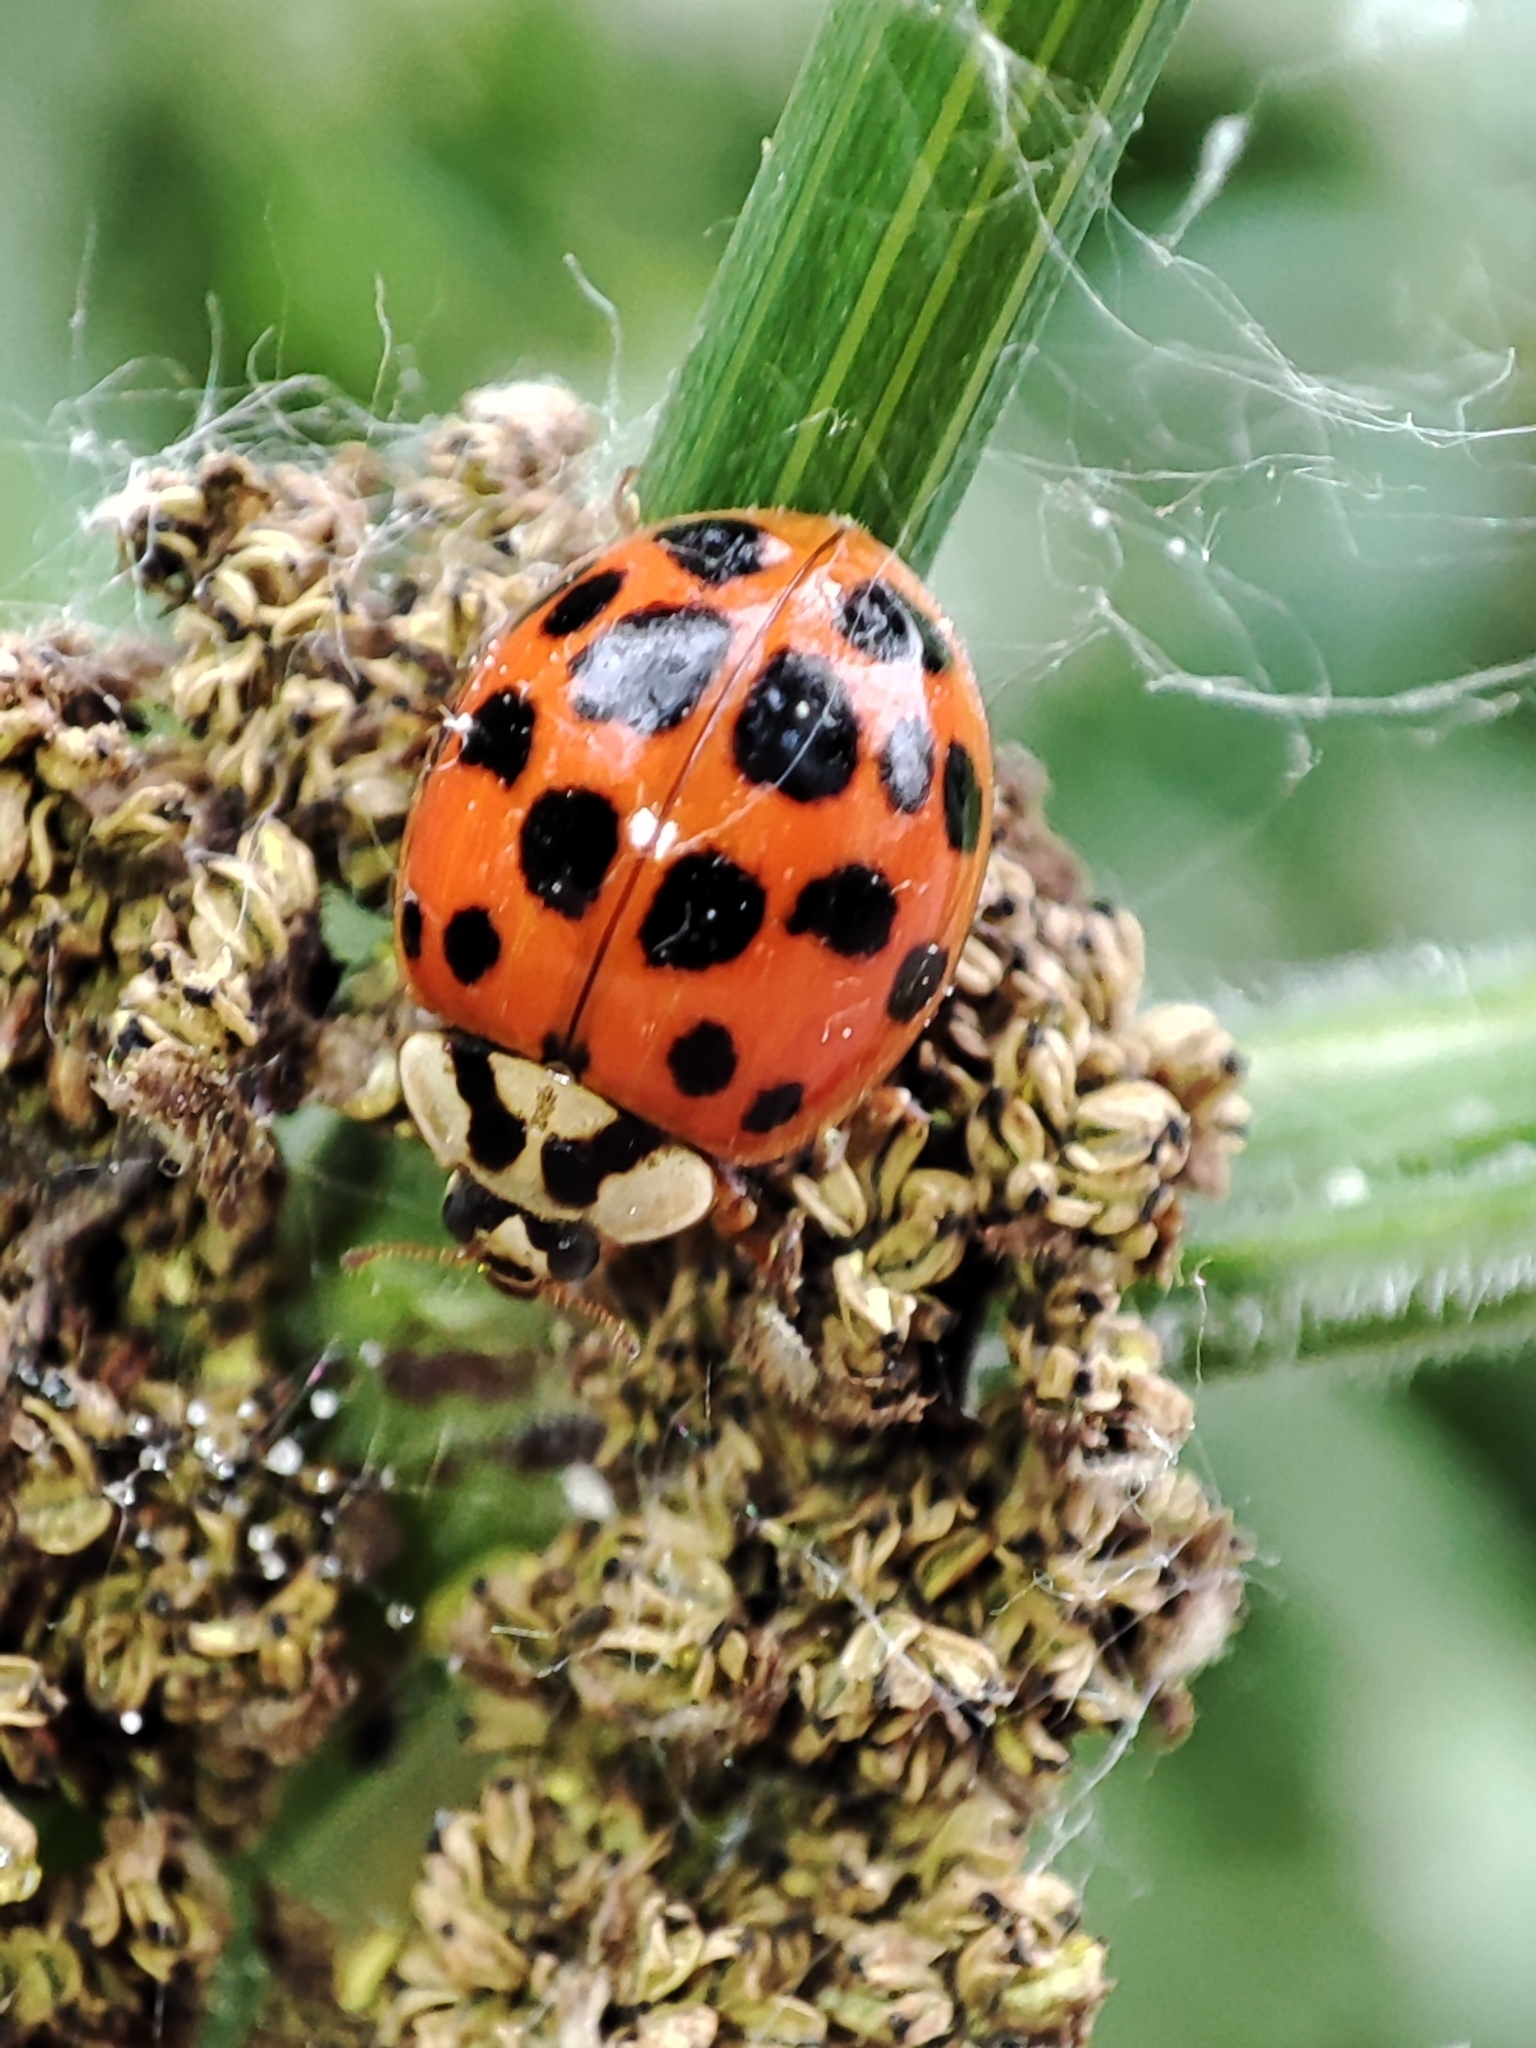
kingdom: Animalia
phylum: Arthropoda
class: Insecta
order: Coleoptera
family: Coccinellidae
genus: Harmonia
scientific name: Harmonia axyridis
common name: Harlequin ladybird
